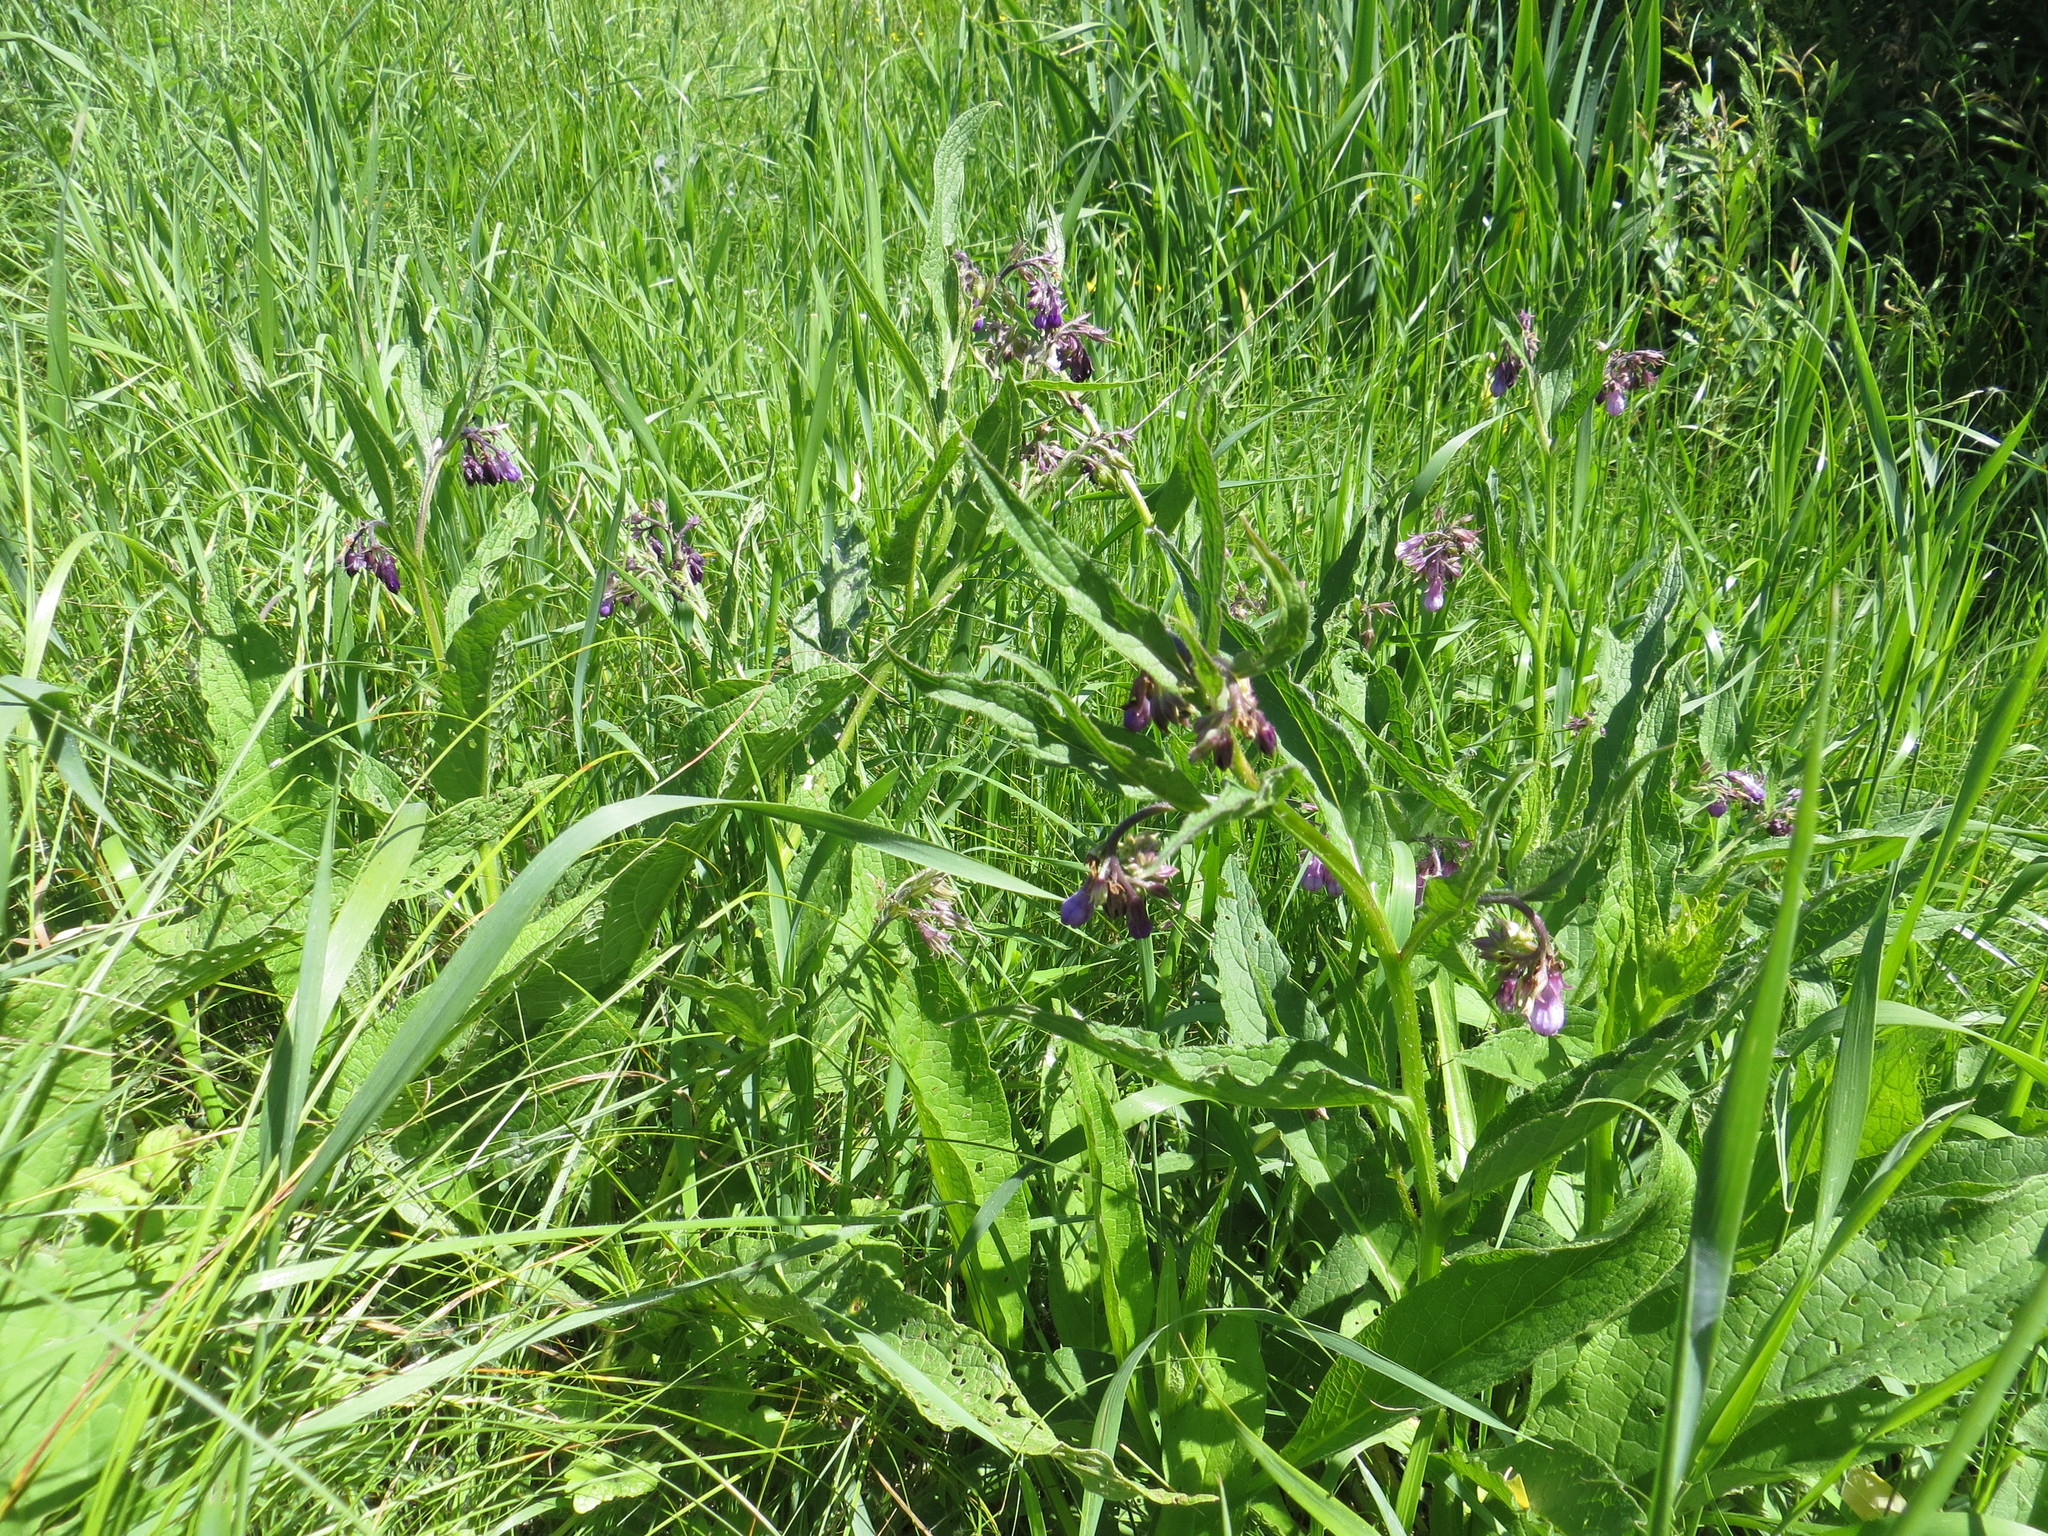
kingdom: Plantae
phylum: Tracheophyta
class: Magnoliopsida
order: Boraginales
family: Boraginaceae
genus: Symphytum
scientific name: Symphytum officinale
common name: Common comfrey
